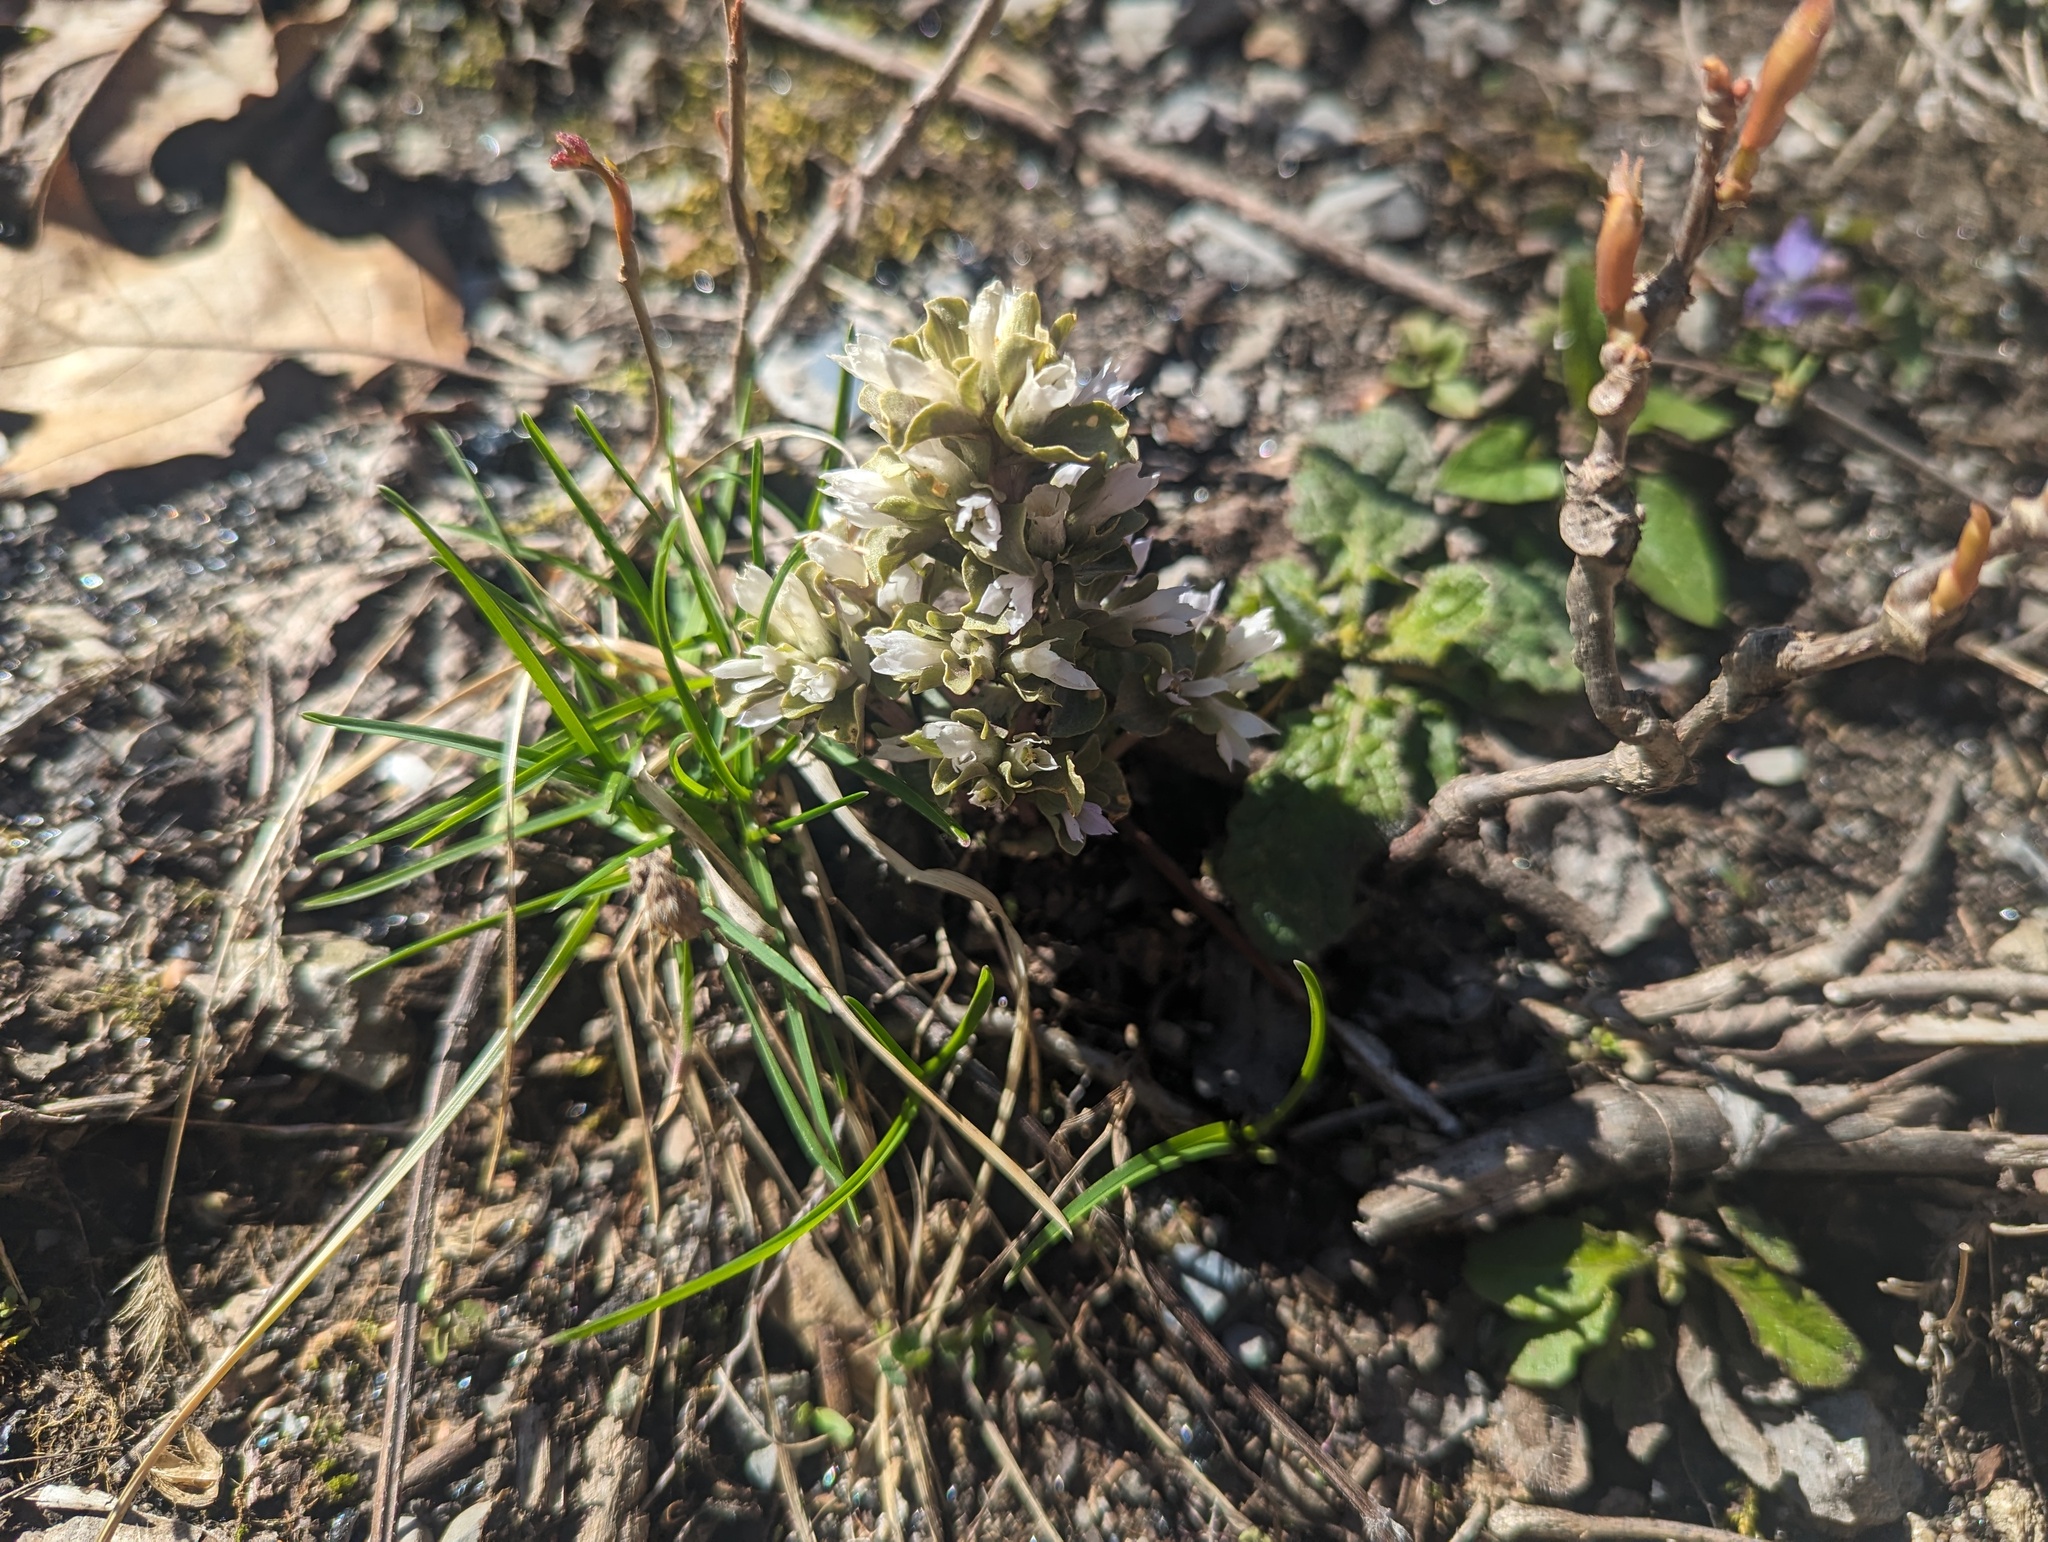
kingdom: Plantae
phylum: Tracheophyta
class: Magnoliopsida
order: Gentianales
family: Gentianaceae
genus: Obolaria
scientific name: Obolaria virginica
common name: Pennywort
